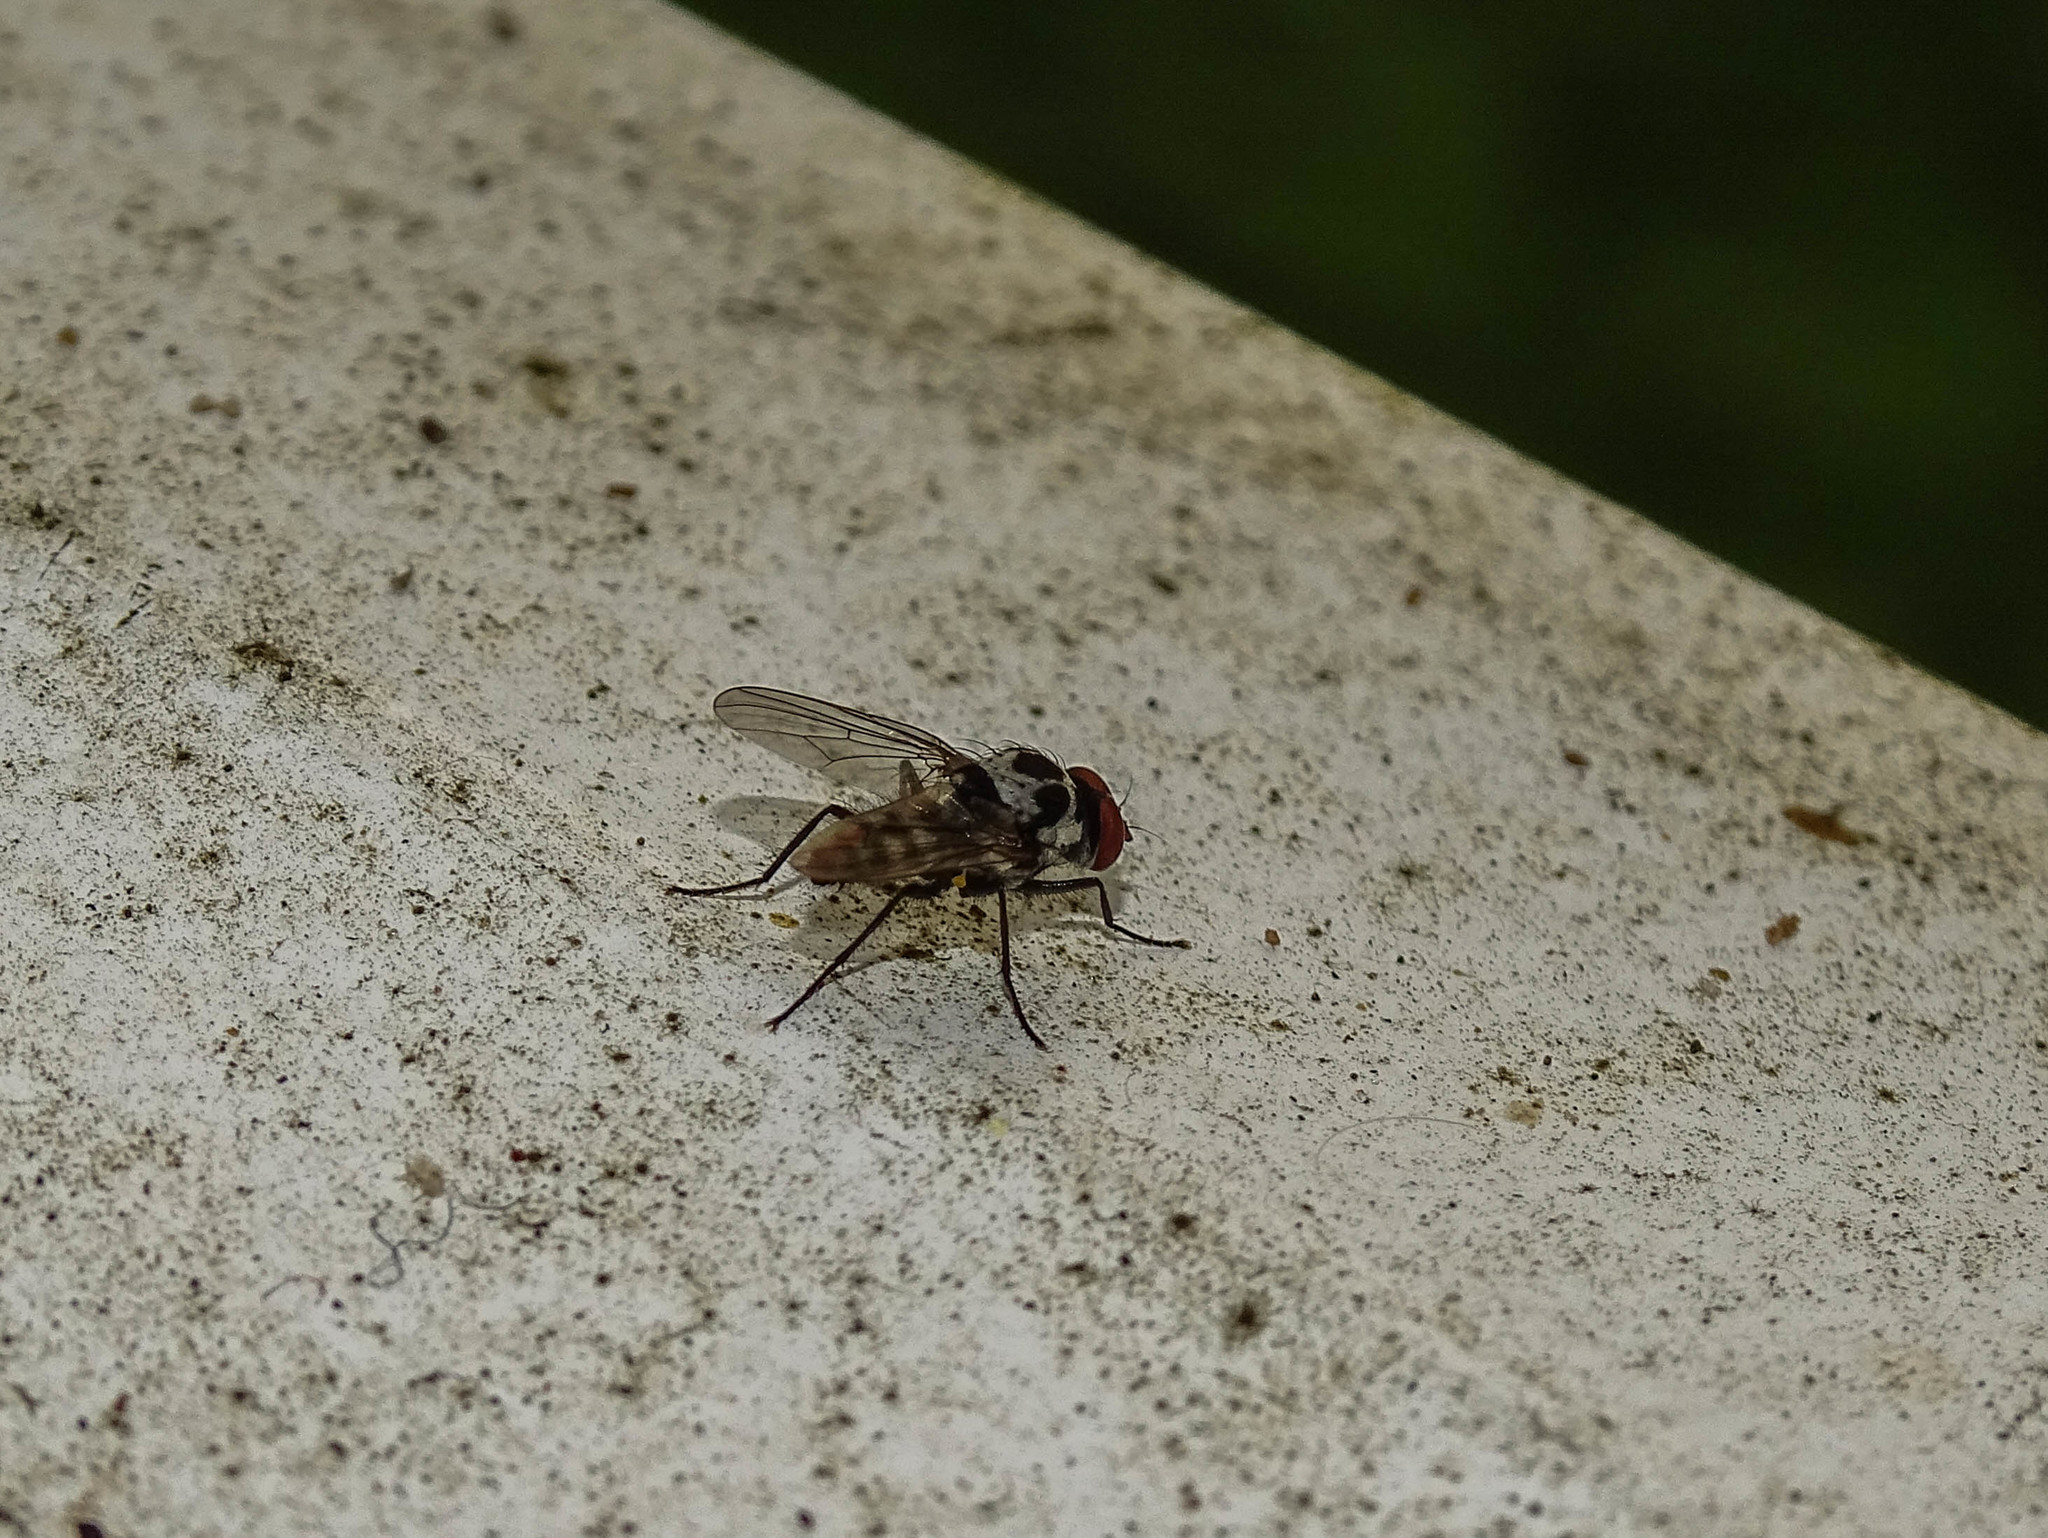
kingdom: Animalia
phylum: Arthropoda
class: Insecta
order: Diptera
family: Anthomyiidae
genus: Anthomyia
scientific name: Anthomyia pluvialis
